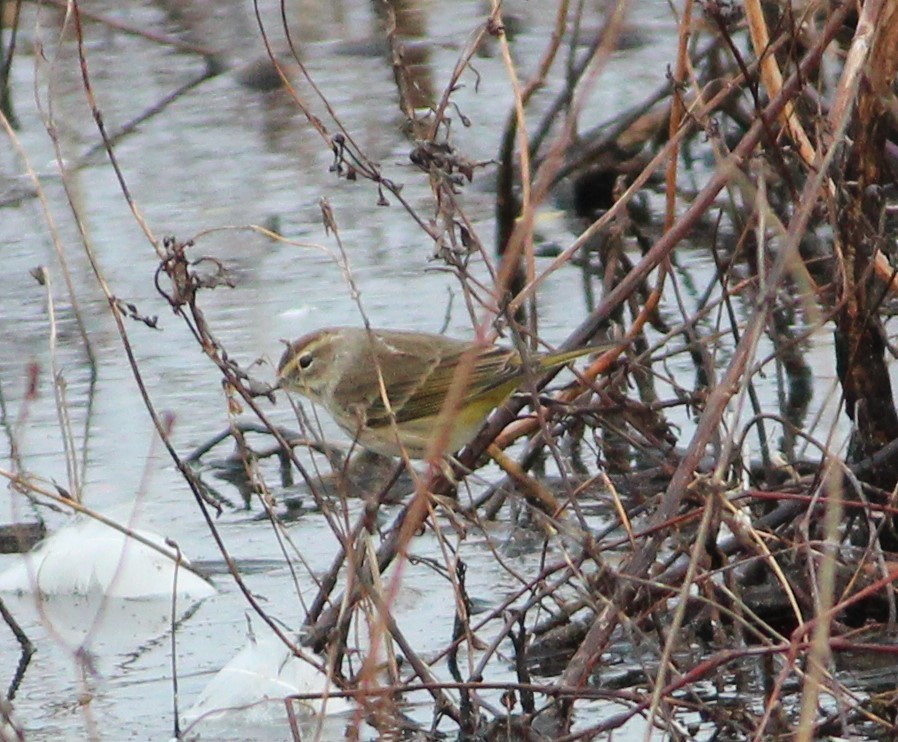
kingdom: Animalia
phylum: Chordata
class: Aves
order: Passeriformes
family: Parulidae
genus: Setophaga
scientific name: Setophaga palmarum
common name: Palm warbler
